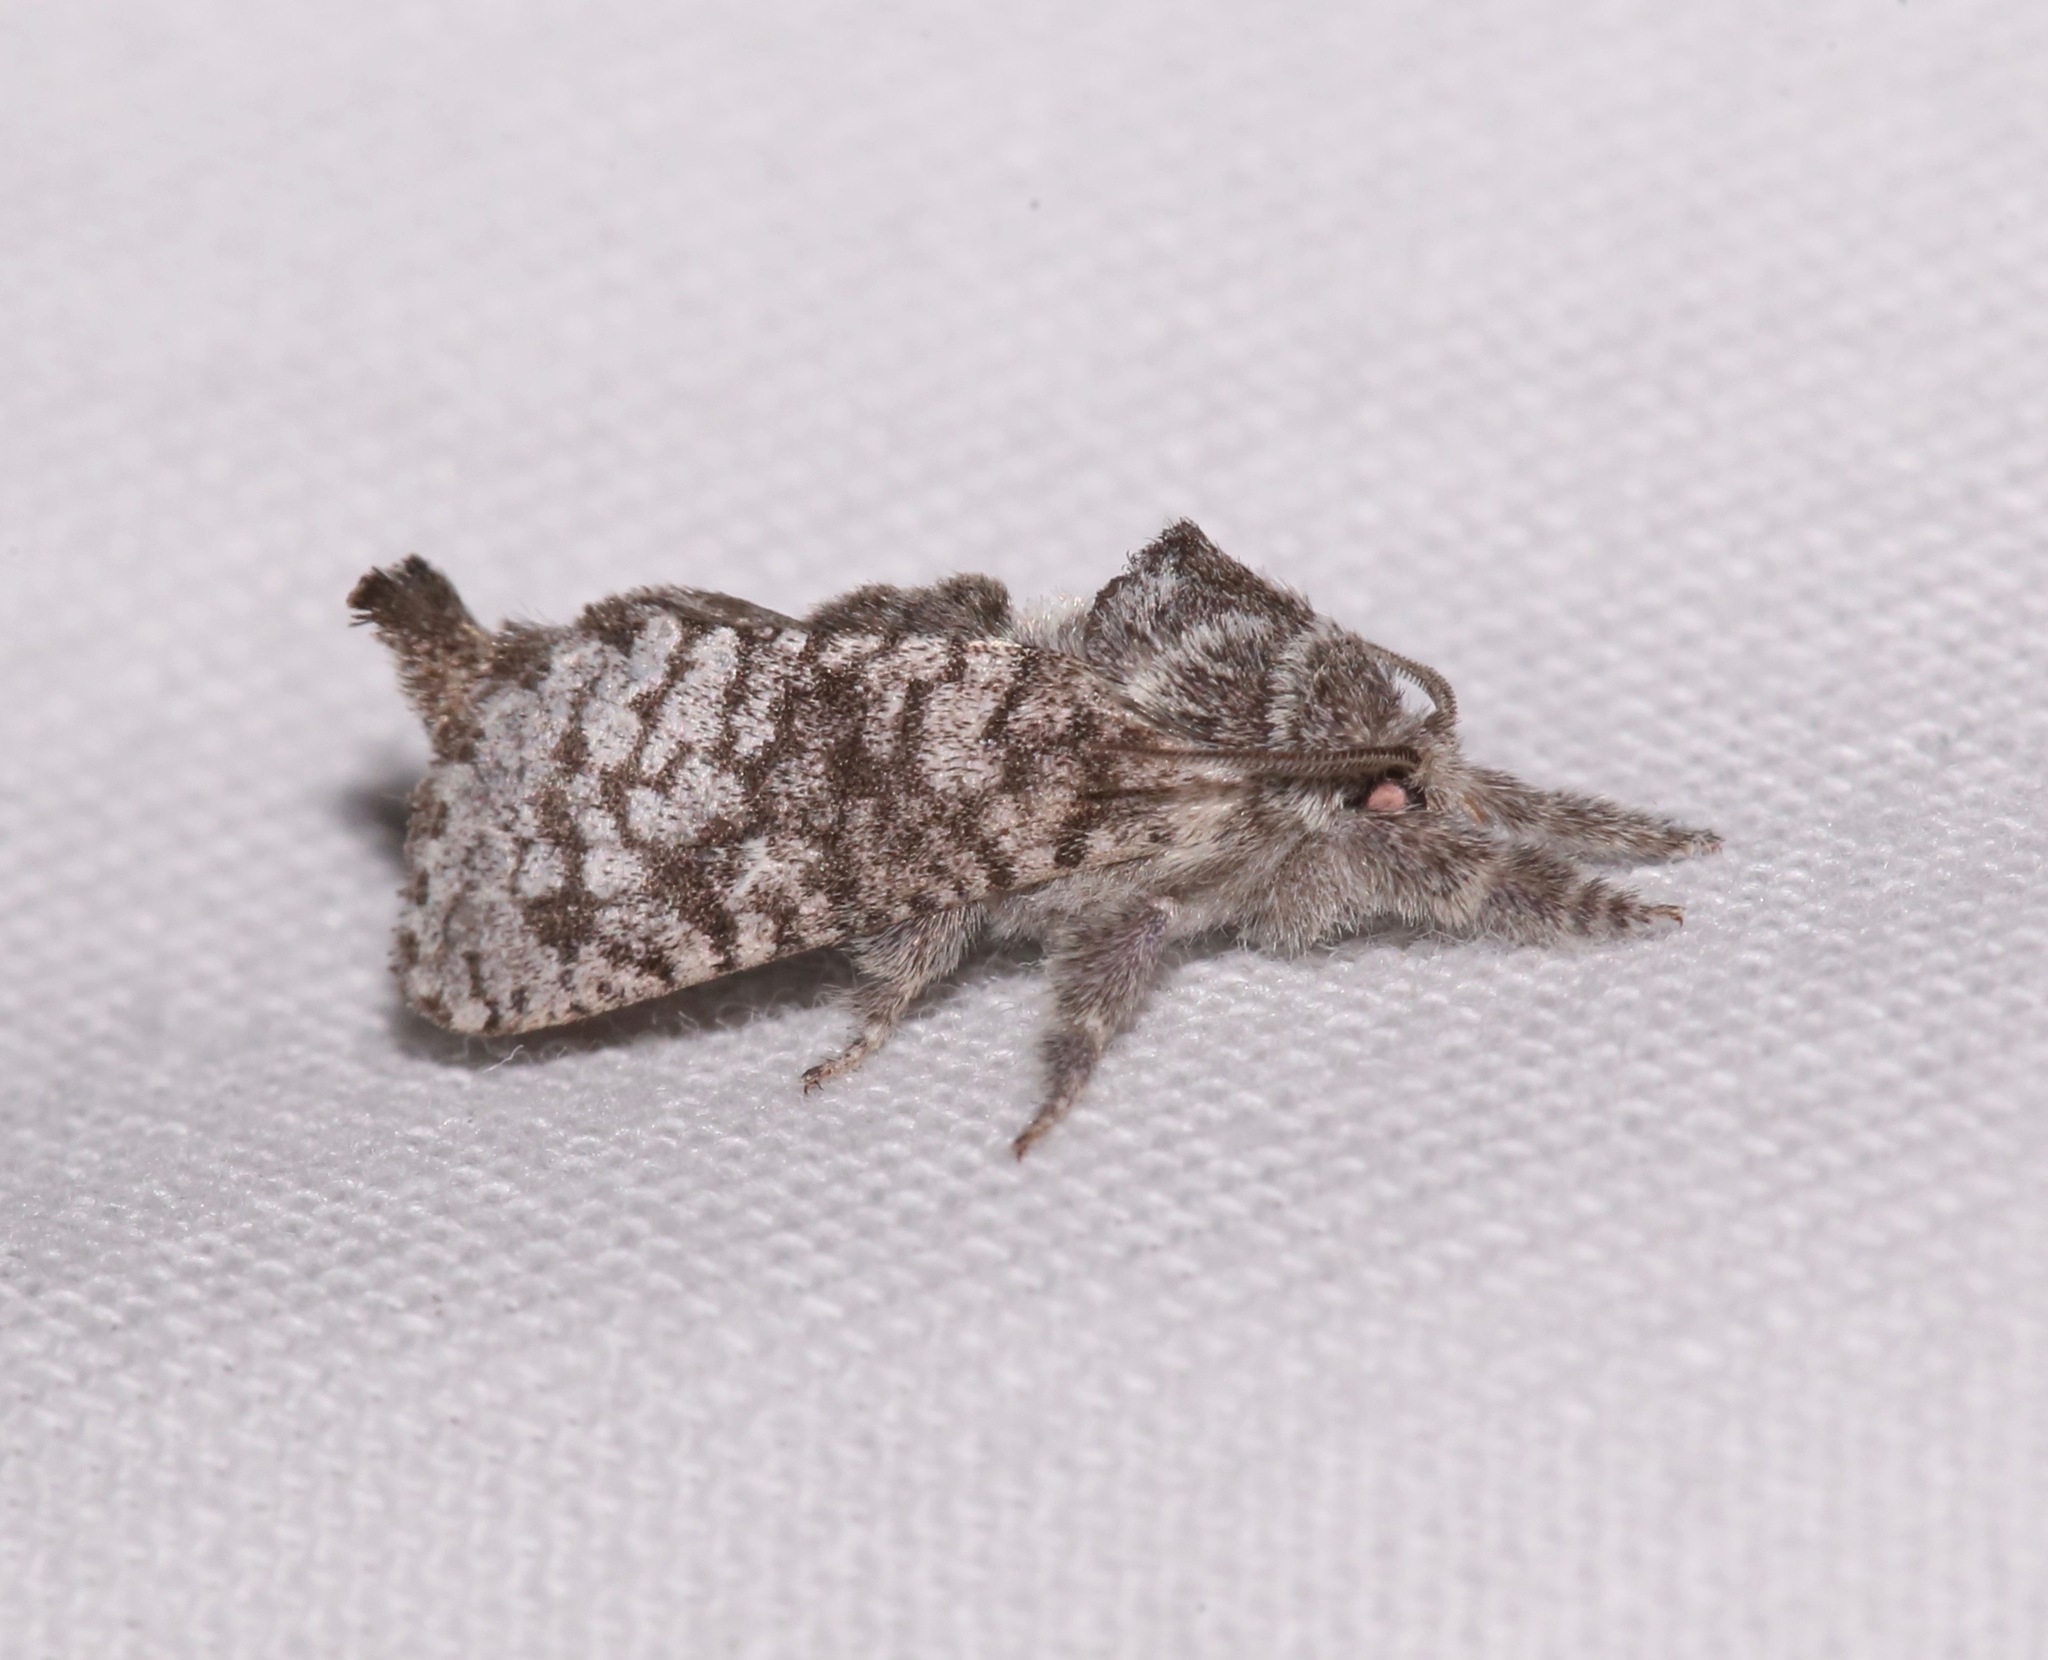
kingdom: Animalia
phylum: Arthropoda
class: Insecta
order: Lepidoptera
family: Cossidae
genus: Givira
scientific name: Givira francesca
